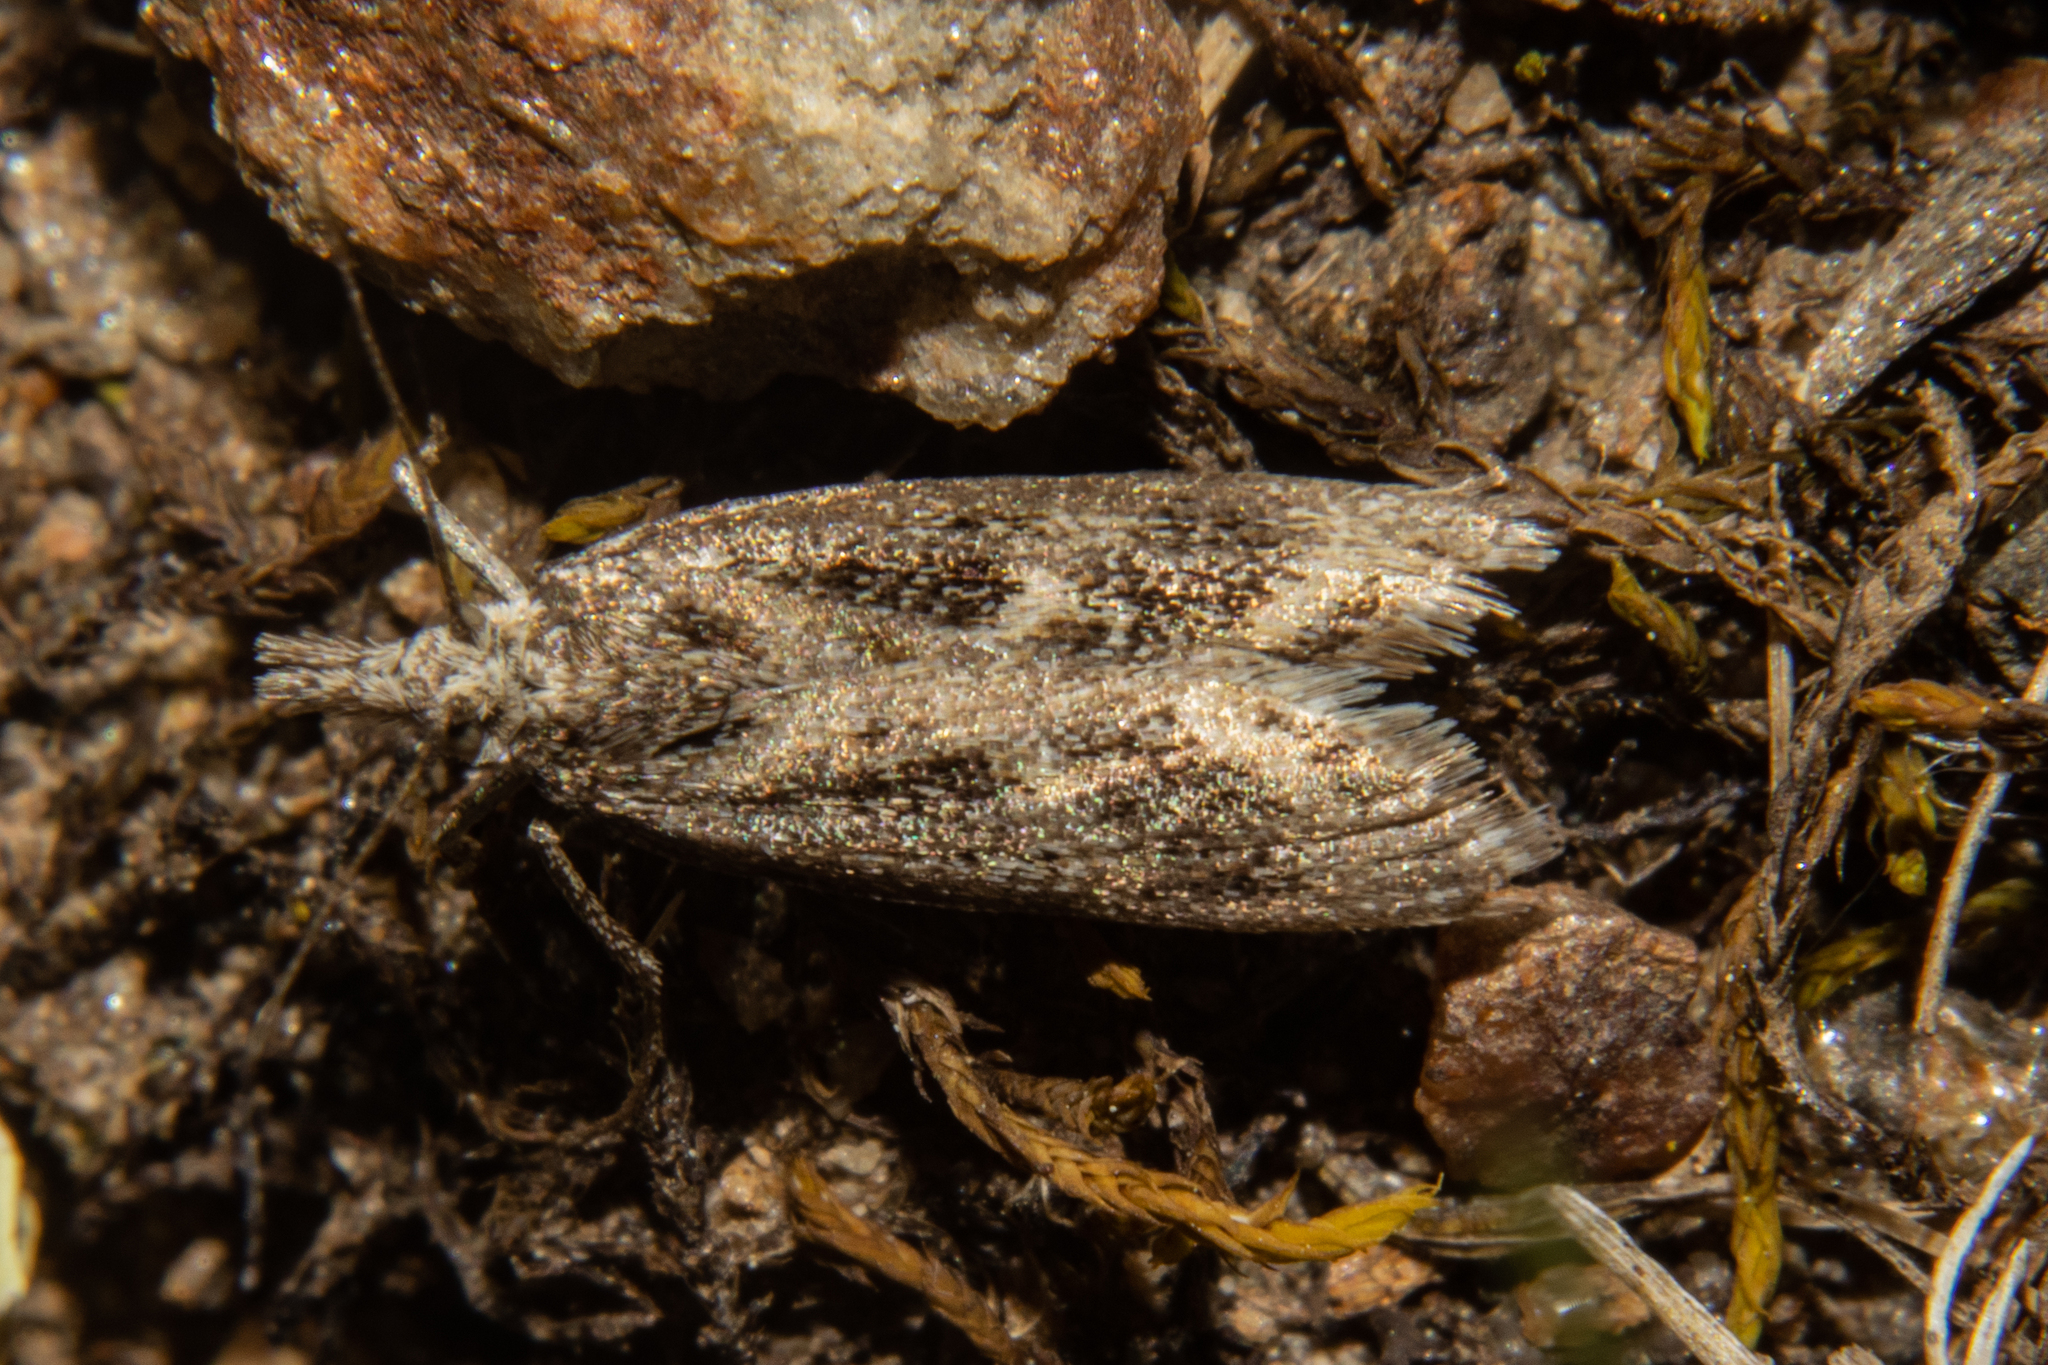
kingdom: Animalia
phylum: Arthropoda
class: Insecta
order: Lepidoptera
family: Crambidae
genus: Orocrambus
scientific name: Orocrambus corruptus
